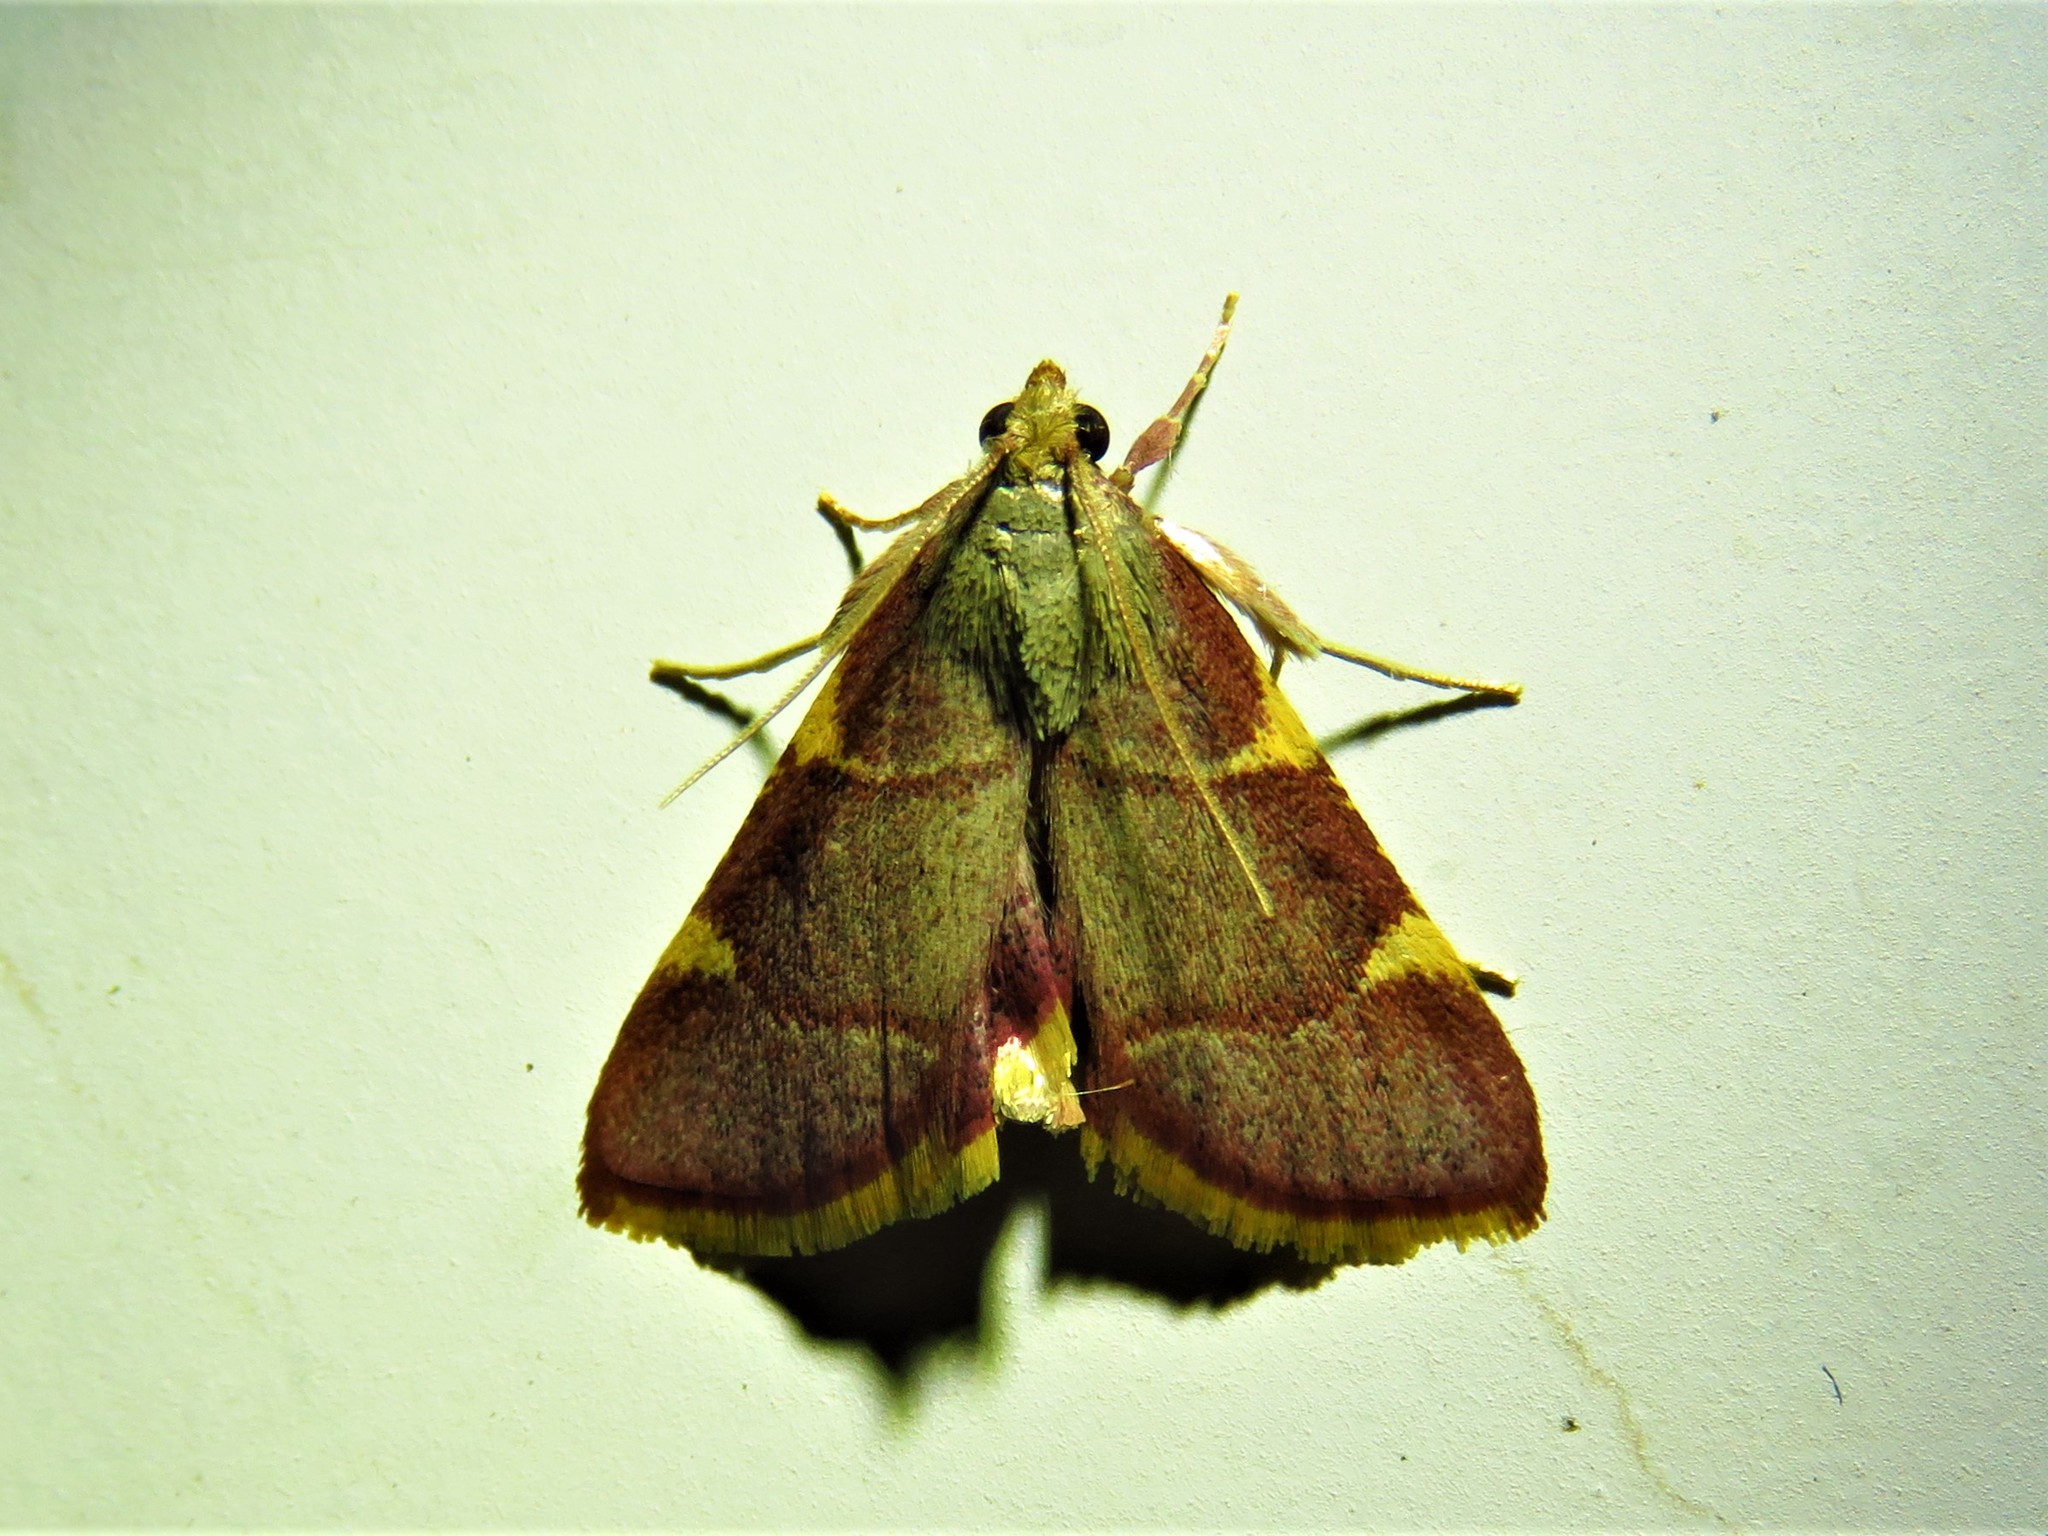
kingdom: Animalia
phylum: Arthropoda
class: Insecta
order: Lepidoptera
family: Pyralidae
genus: Hypsopygia
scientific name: Hypsopygia olinalis
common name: Yellow-fringed dolichomia moth
